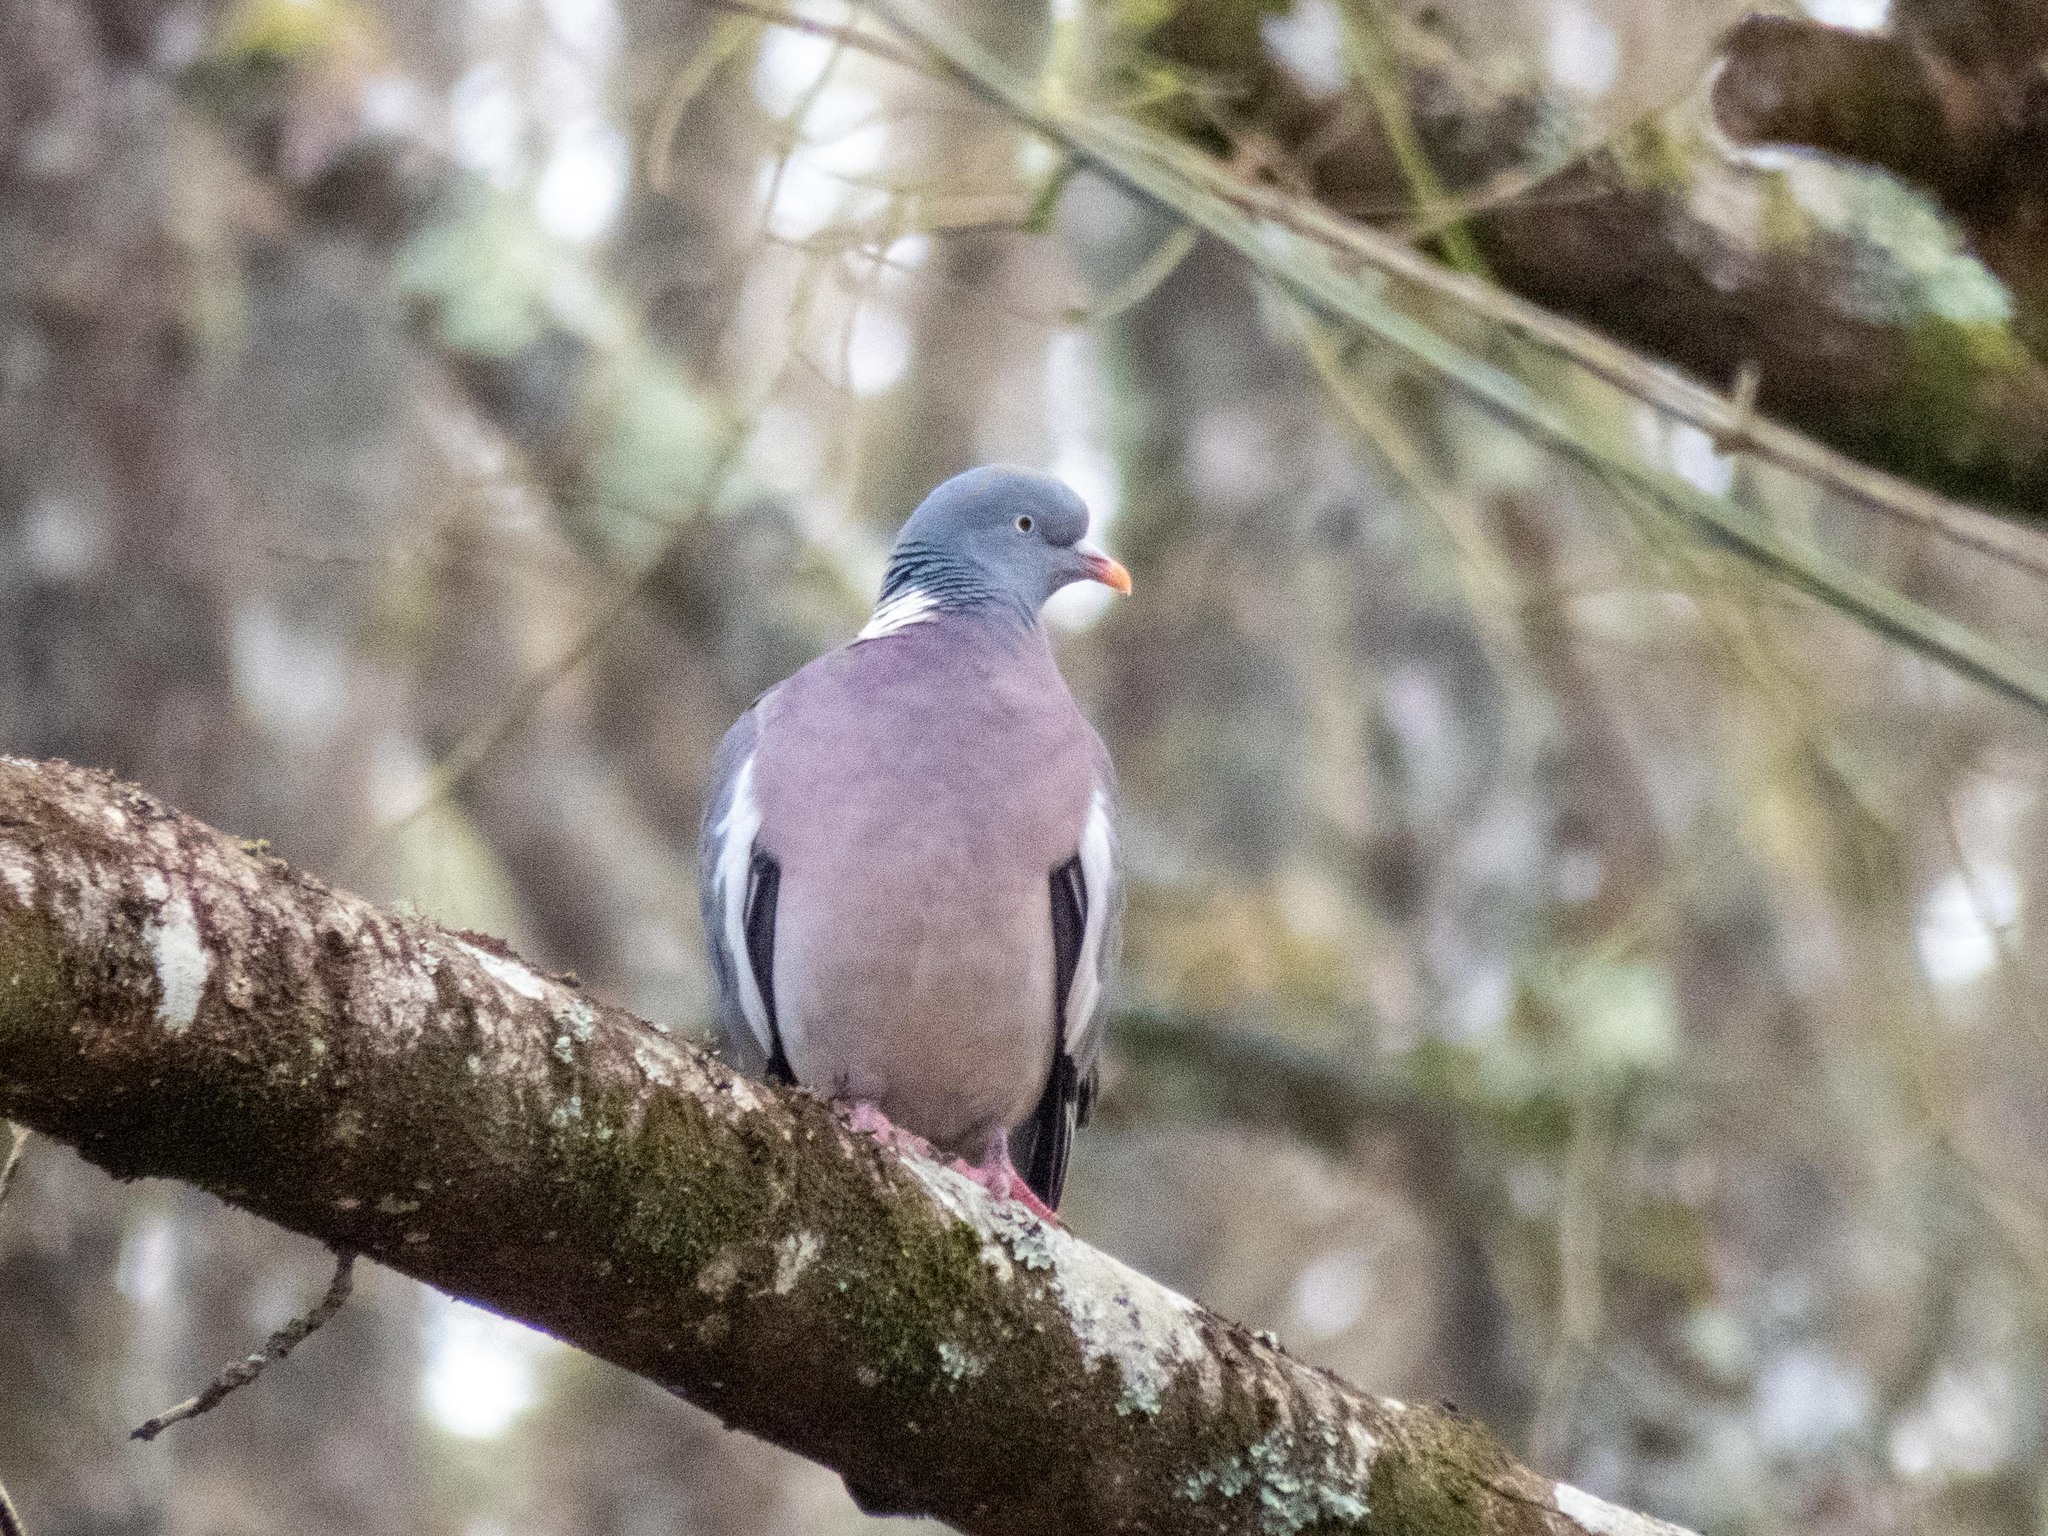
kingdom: Animalia
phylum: Chordata
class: Aves
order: Columbiformes
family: Columbidae
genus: Columba
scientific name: Columba palumbus
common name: Common wood pigeon
